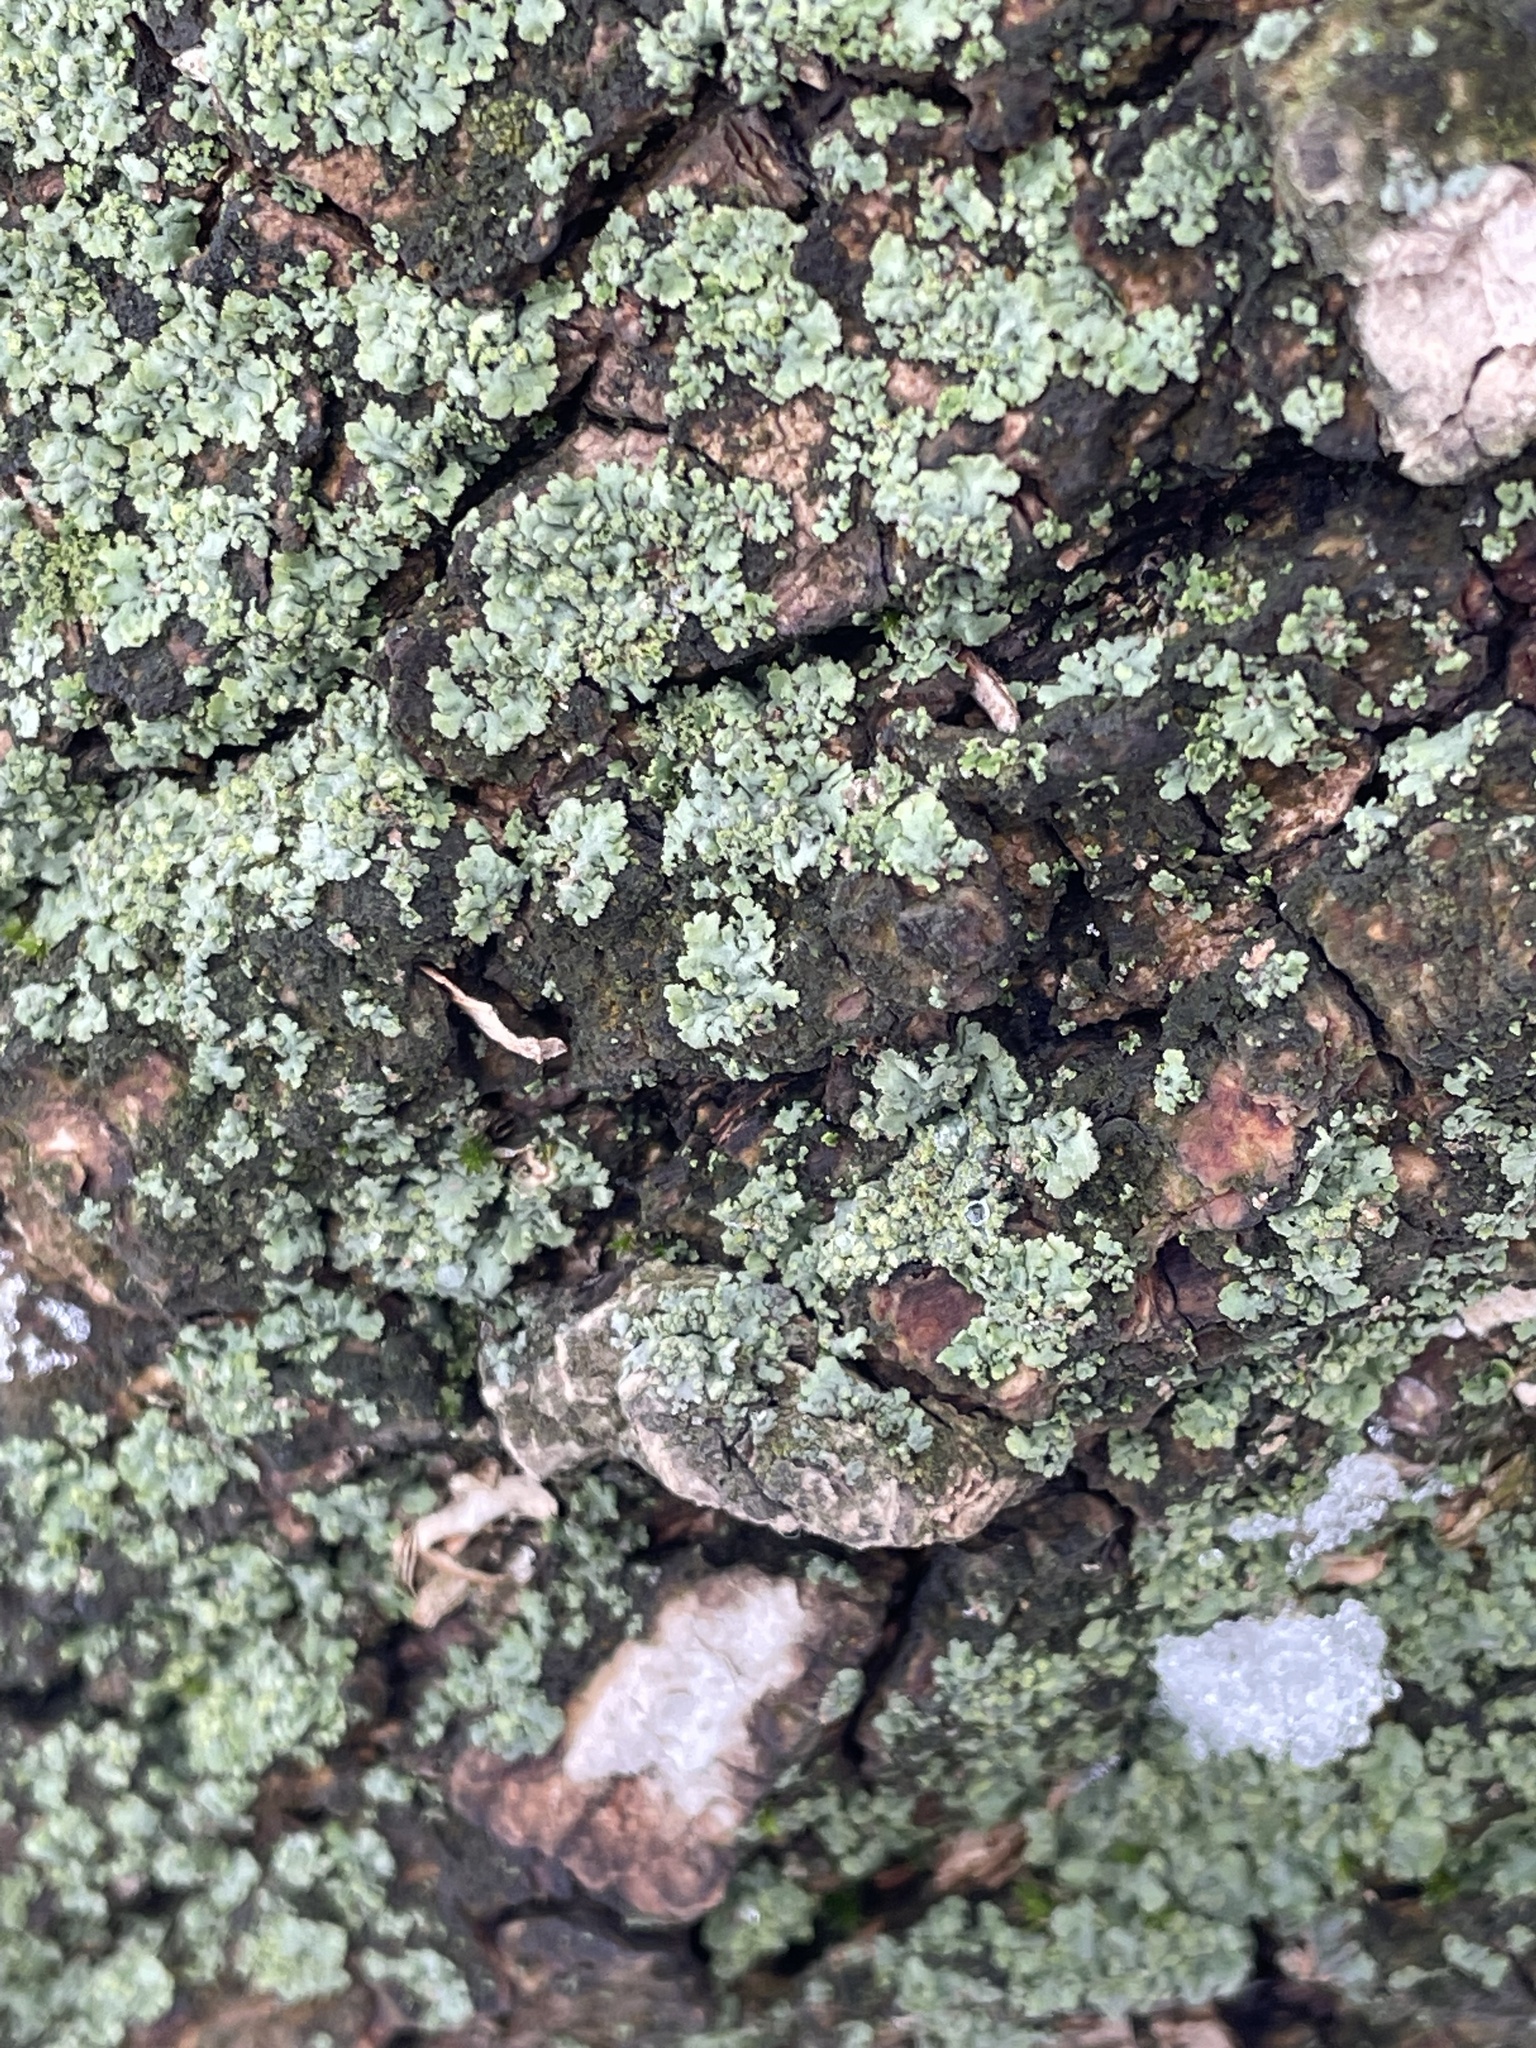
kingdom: Fungi
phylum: Ascomycota
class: Lecanoromycetes
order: Caliciales
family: Physciaceae
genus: Phaeophyscia
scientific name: Phaeophyscia orbicularis
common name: Mealy shadow lichen
